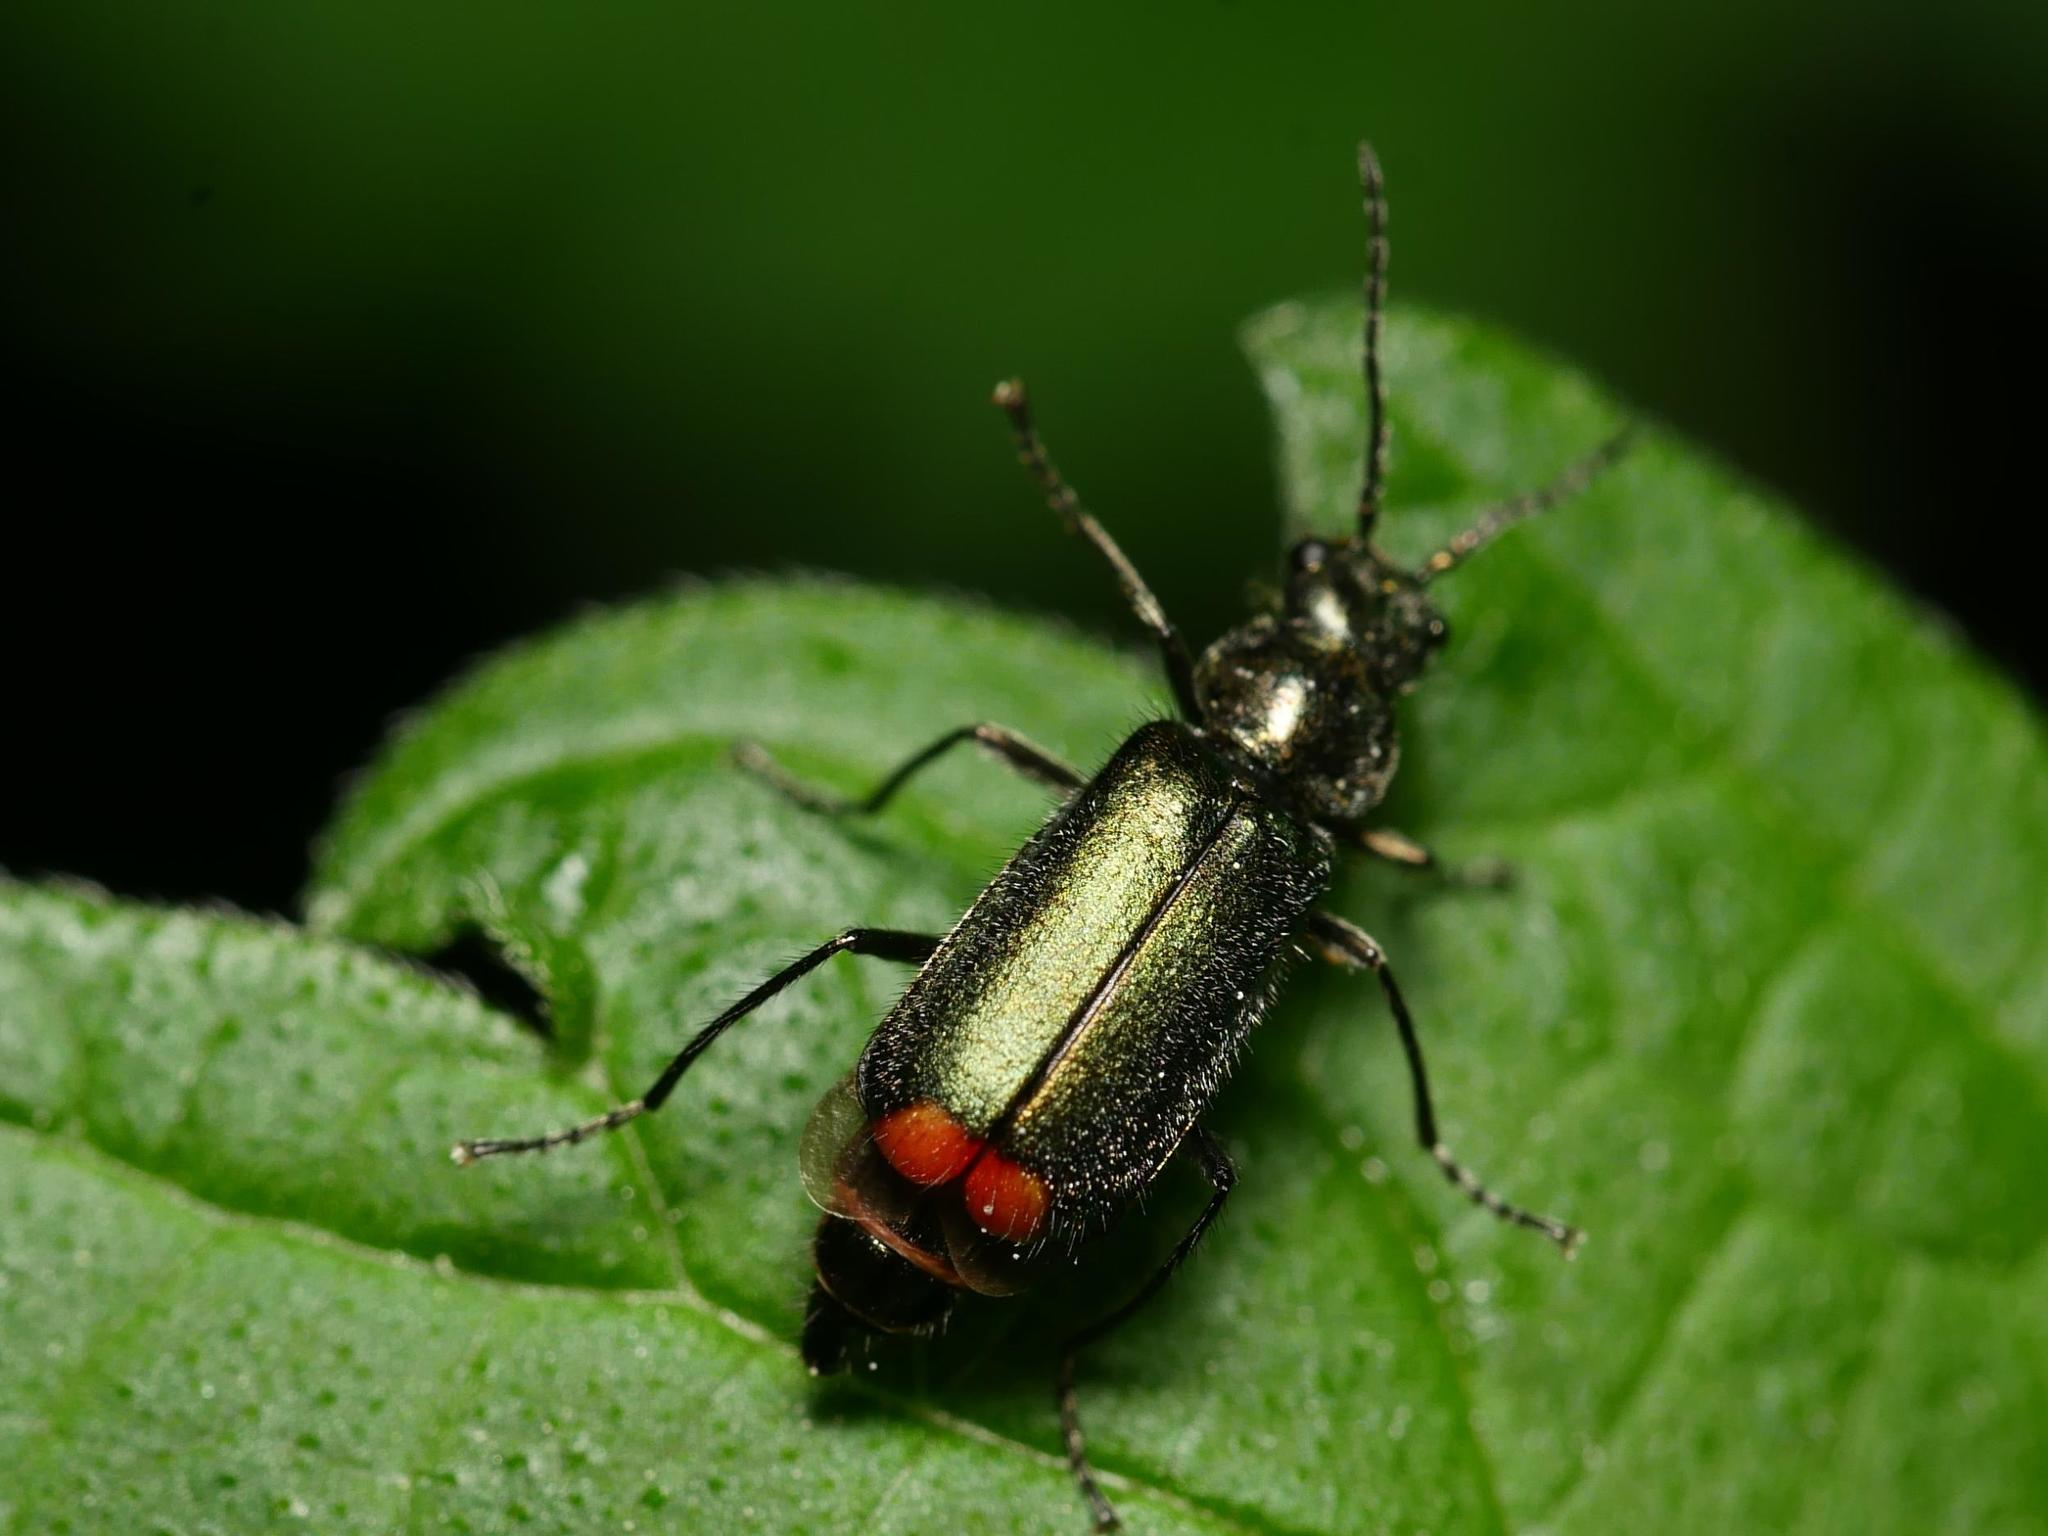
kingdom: Animalia
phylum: Arthropoda
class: Insecta
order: Coleoptera
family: Melyridae
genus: Malachius
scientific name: Malachius bipustulatus
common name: Malachite beetle
